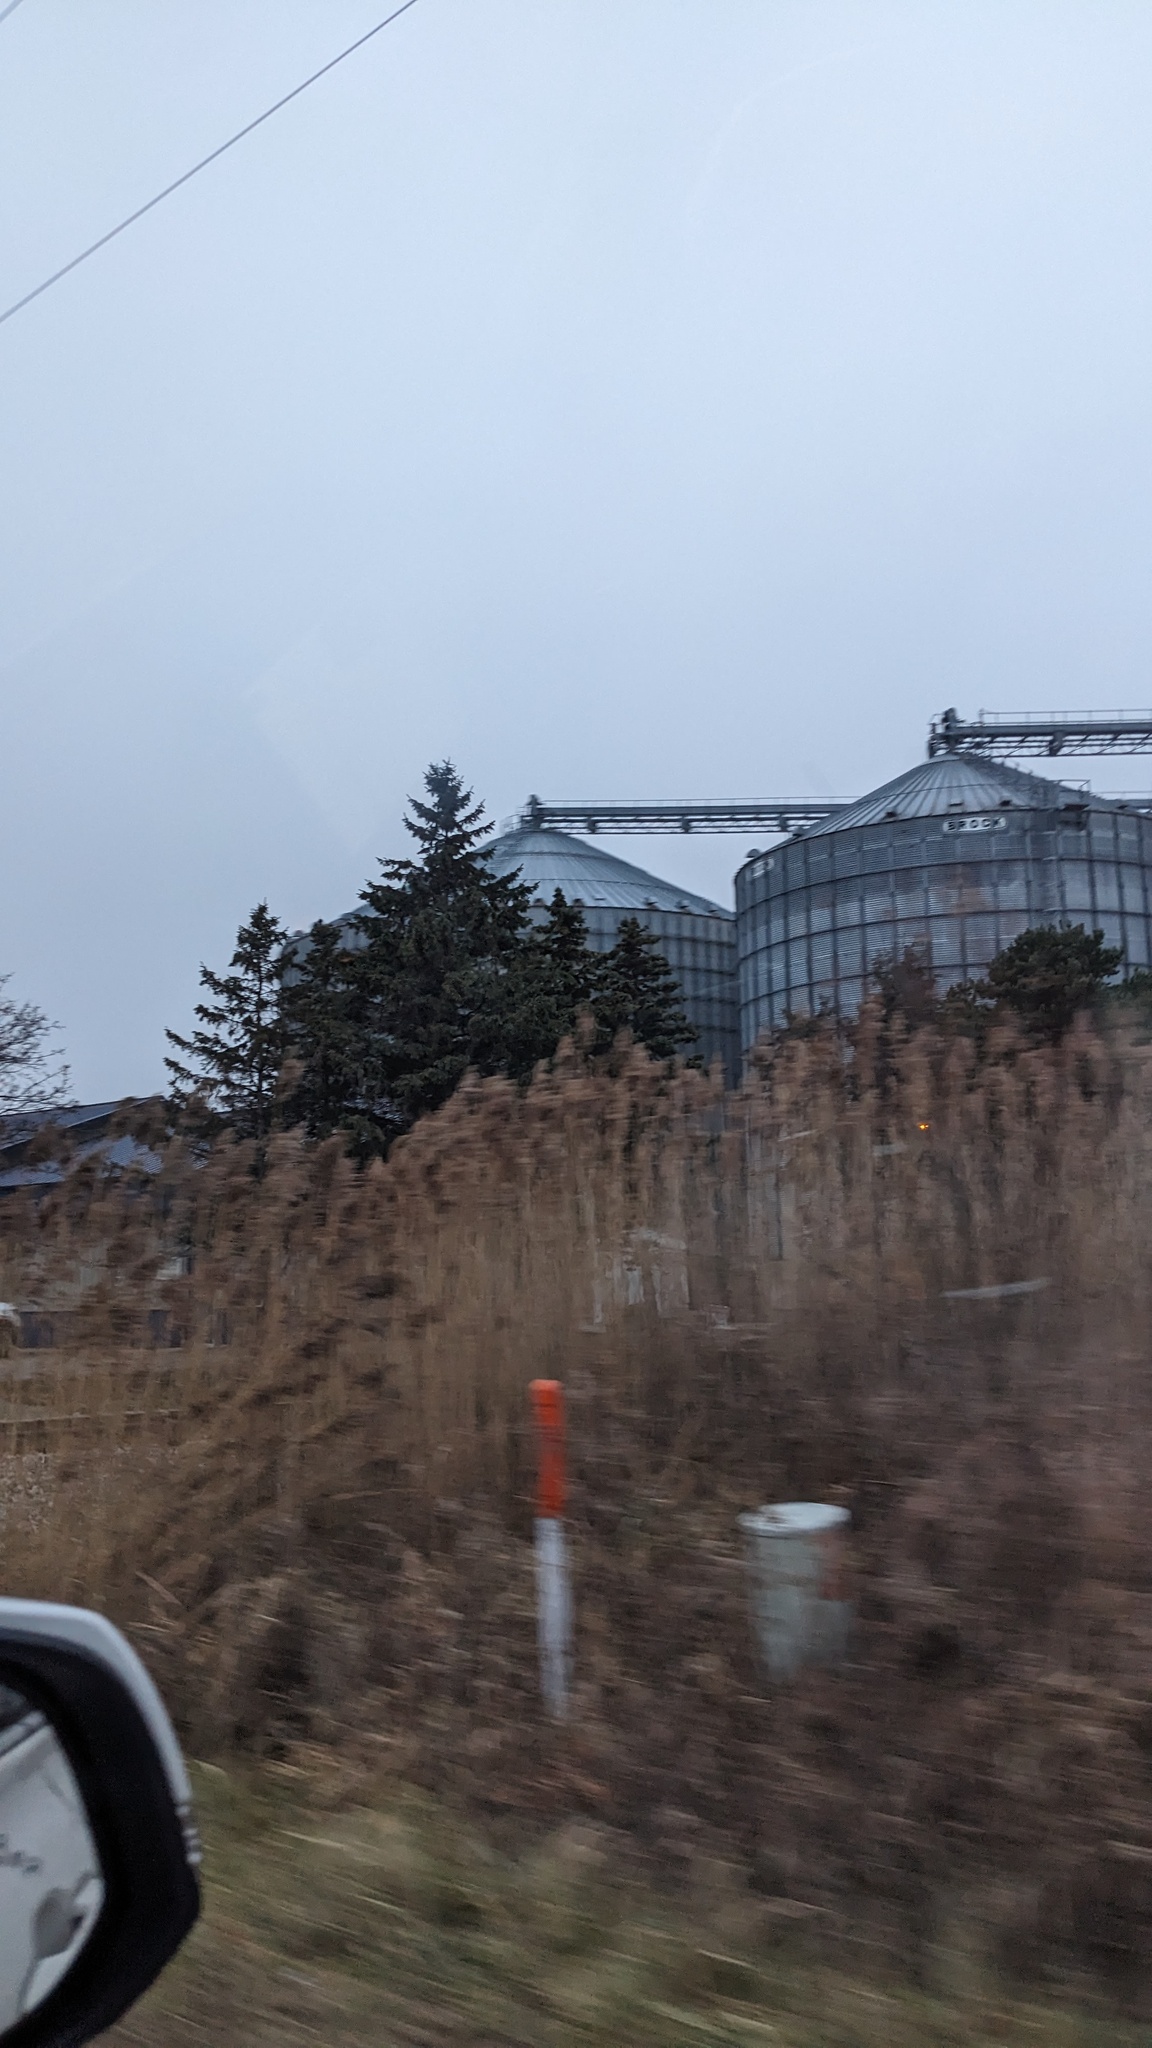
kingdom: Plantae
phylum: Tracheophyta
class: Liliopsida
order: Poales
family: Poaceae
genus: Phragmites
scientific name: Phragmites australis
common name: Common reed
